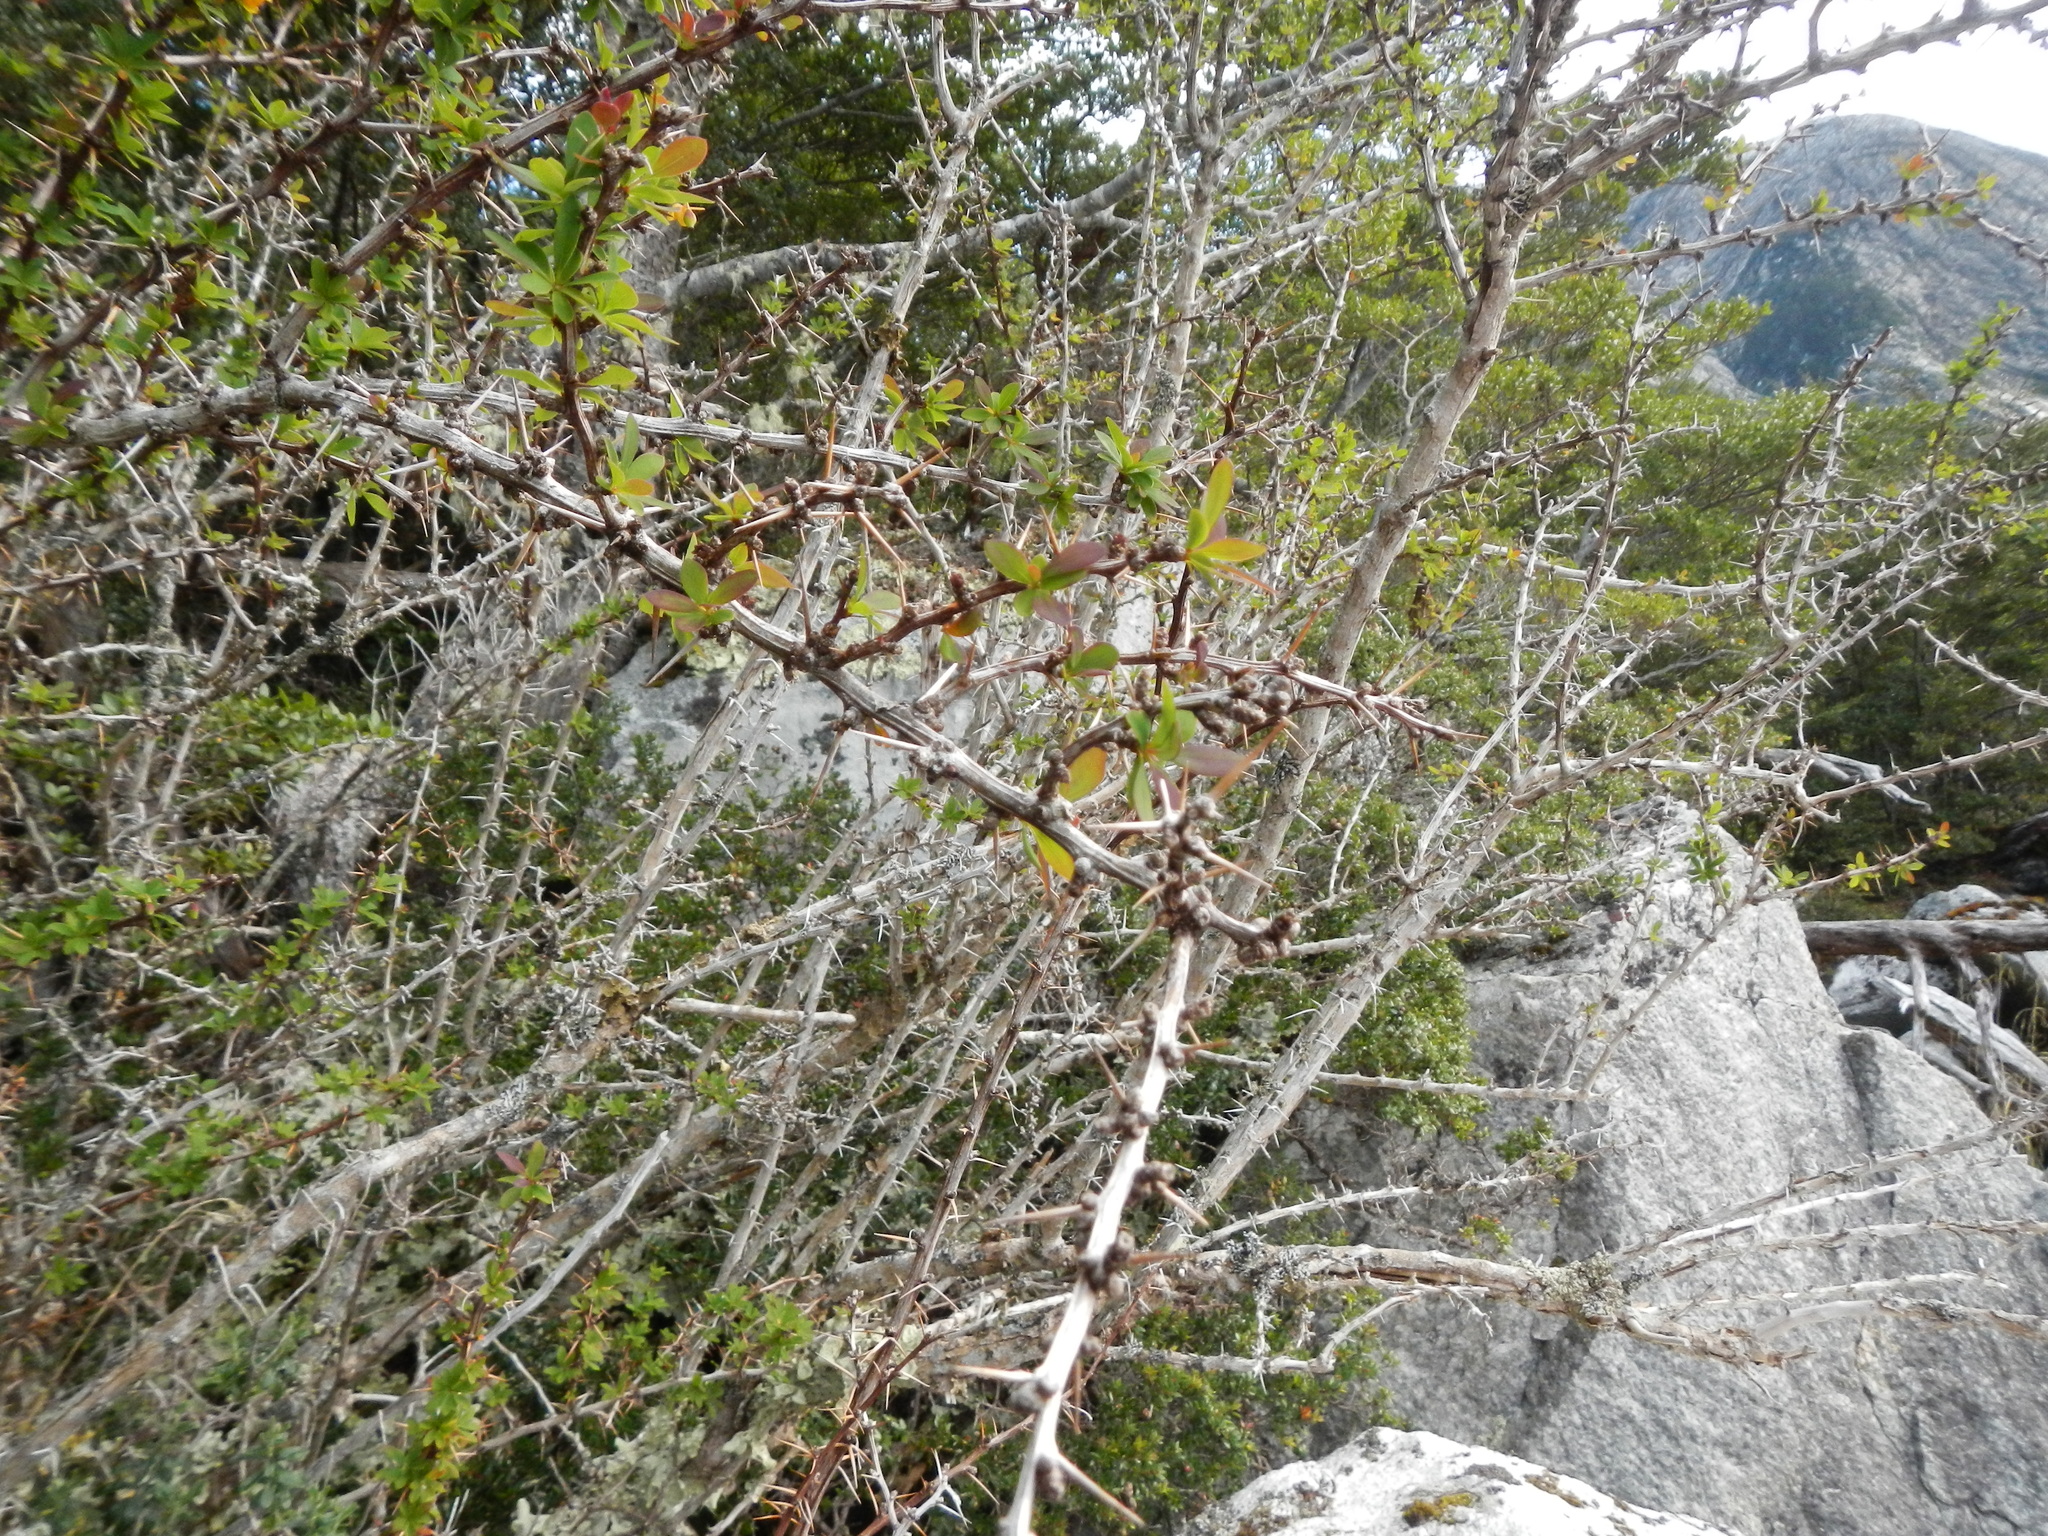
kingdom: Plantae
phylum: Tracheophyta
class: Magnoliopsida
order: Ranunculales
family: Berberidaceae
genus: Berberis
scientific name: Berberis microphylla
